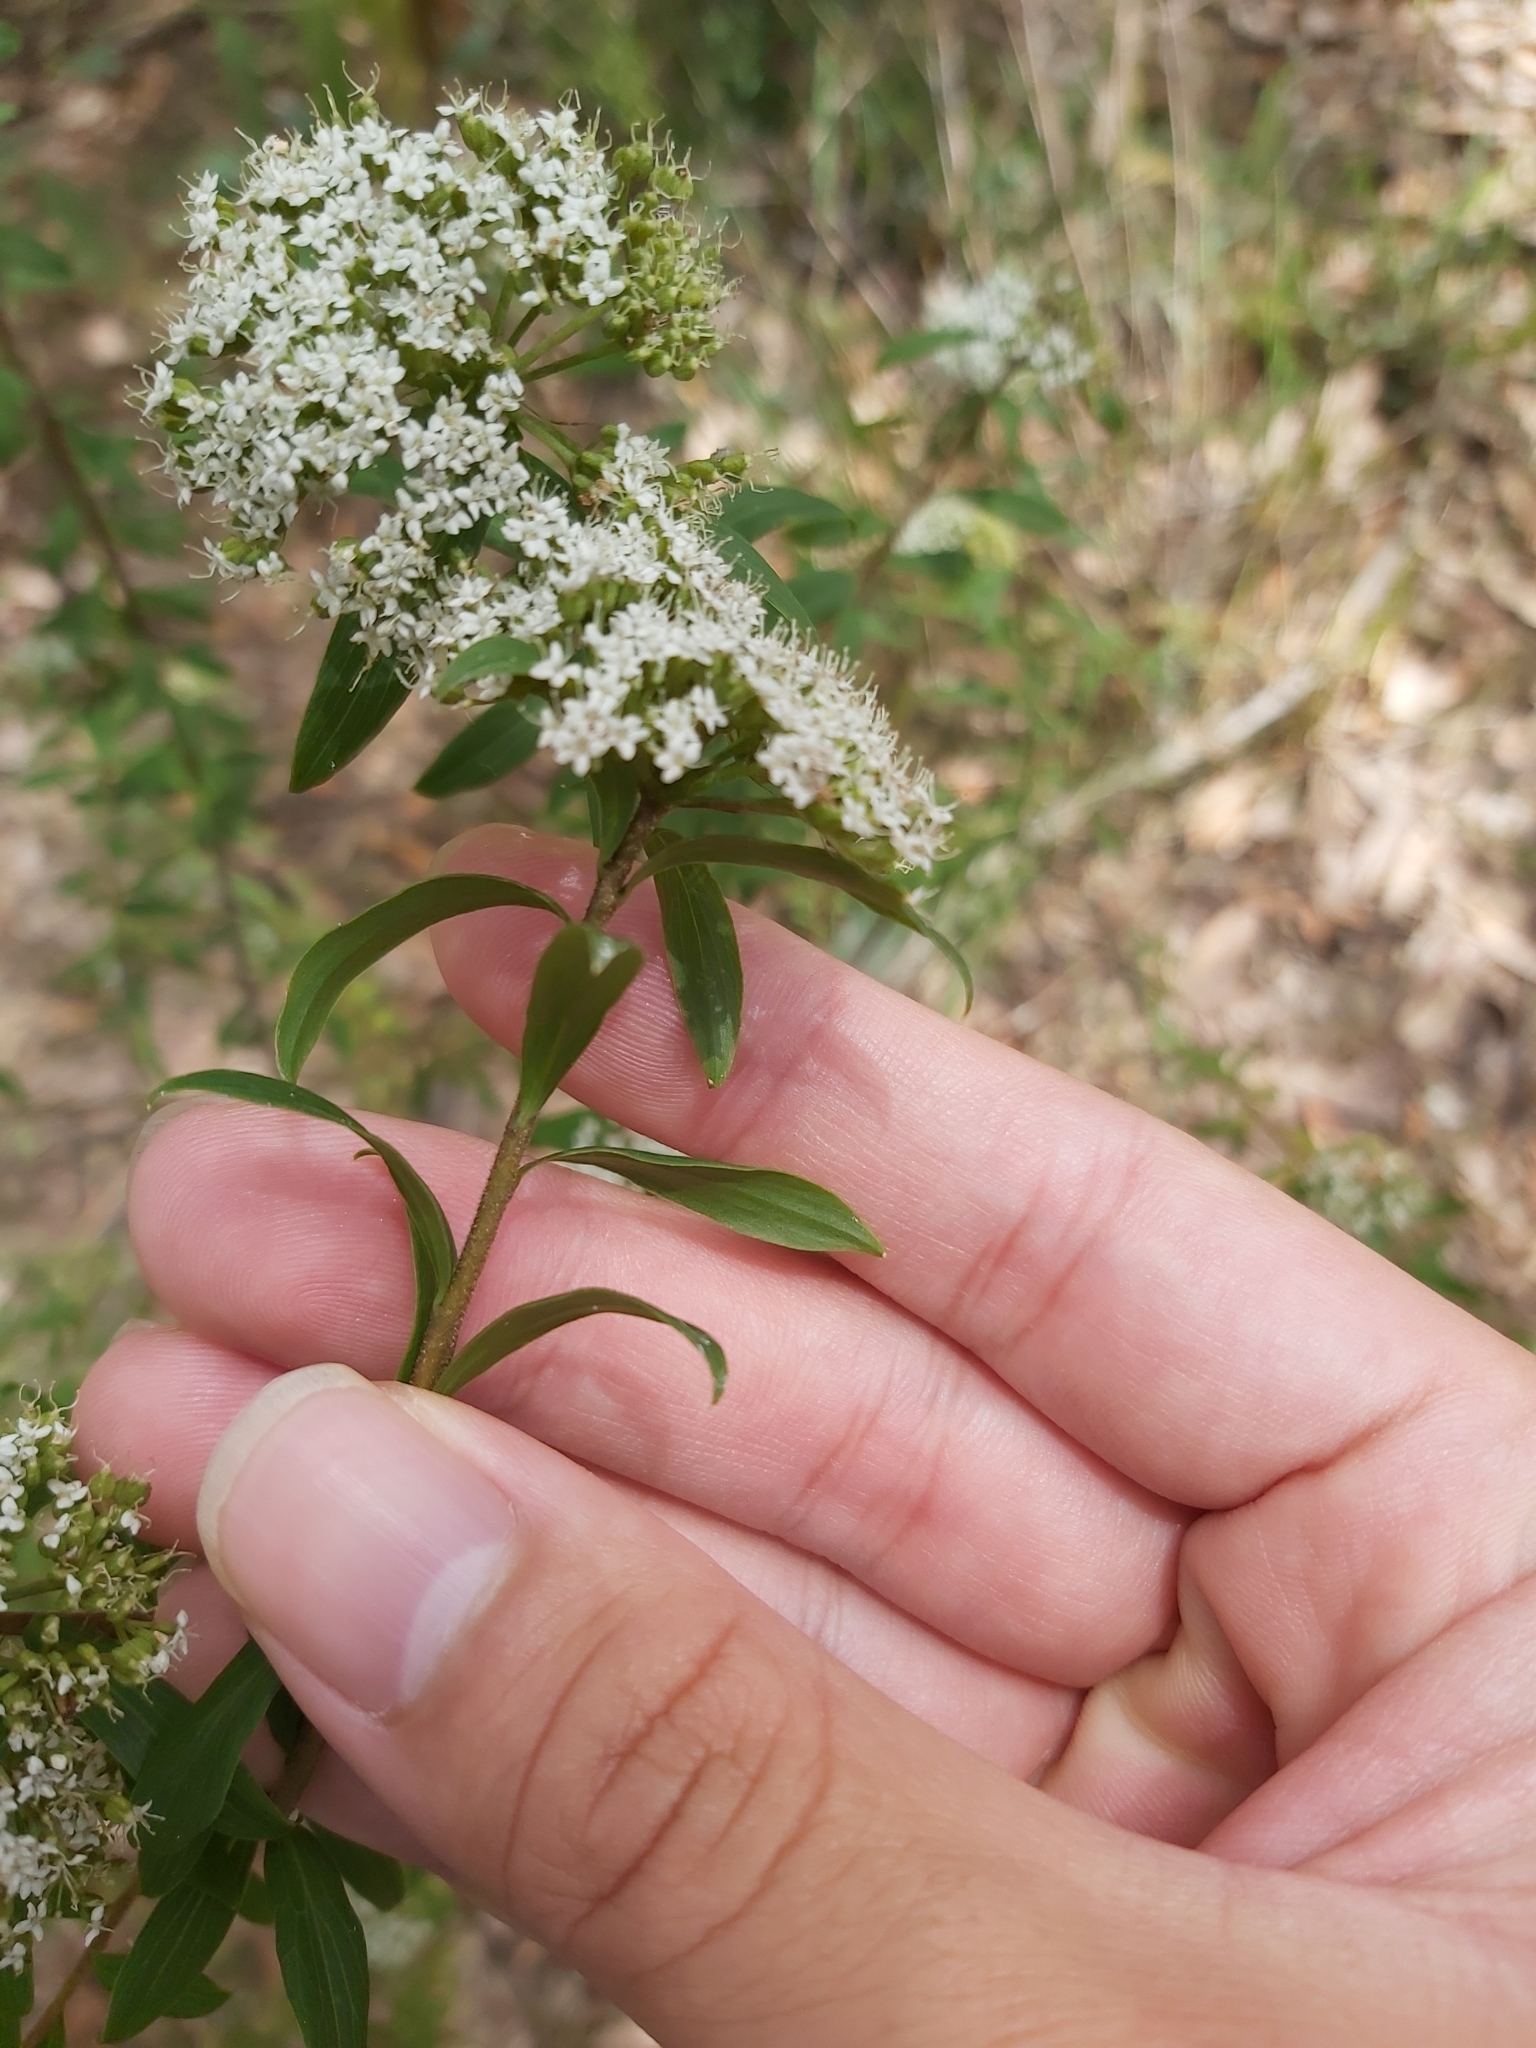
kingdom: Plantae
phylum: Tracheophyta
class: Magnoliopsida
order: Apiales
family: Apiaceae
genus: Platysace
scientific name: Platysace lanceolata
